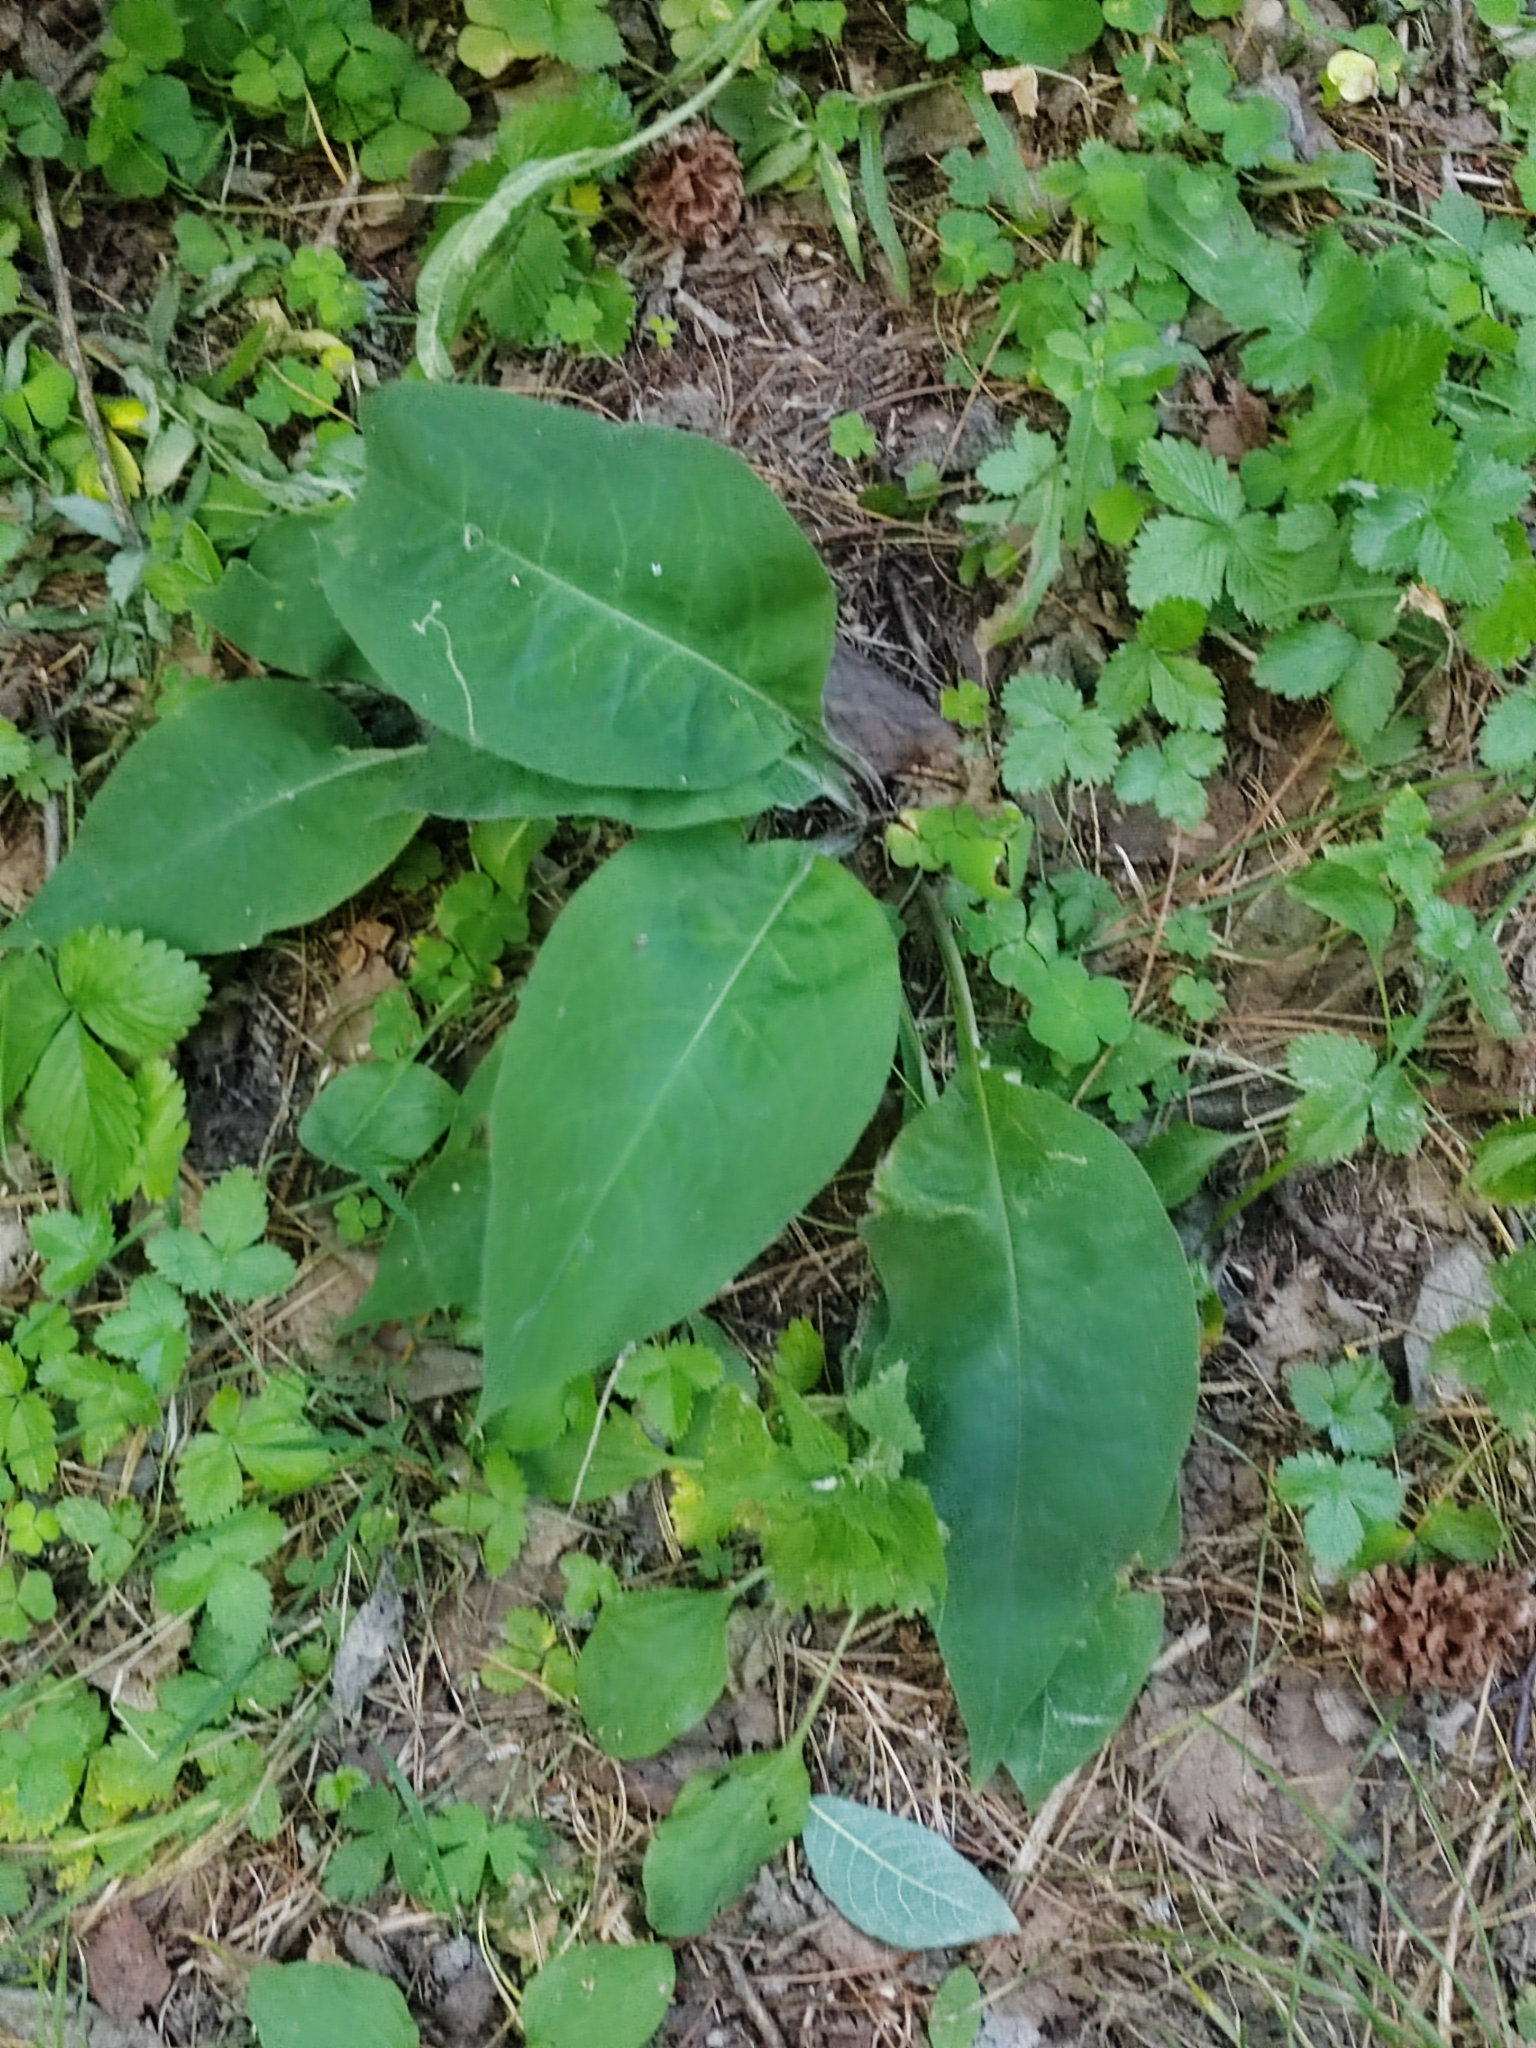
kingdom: Plantae
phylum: Tracheophyta
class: Magnoliopsida
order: Boraginales
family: Boraginaceae
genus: Pulmonaria
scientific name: Pulmonaria mollis
